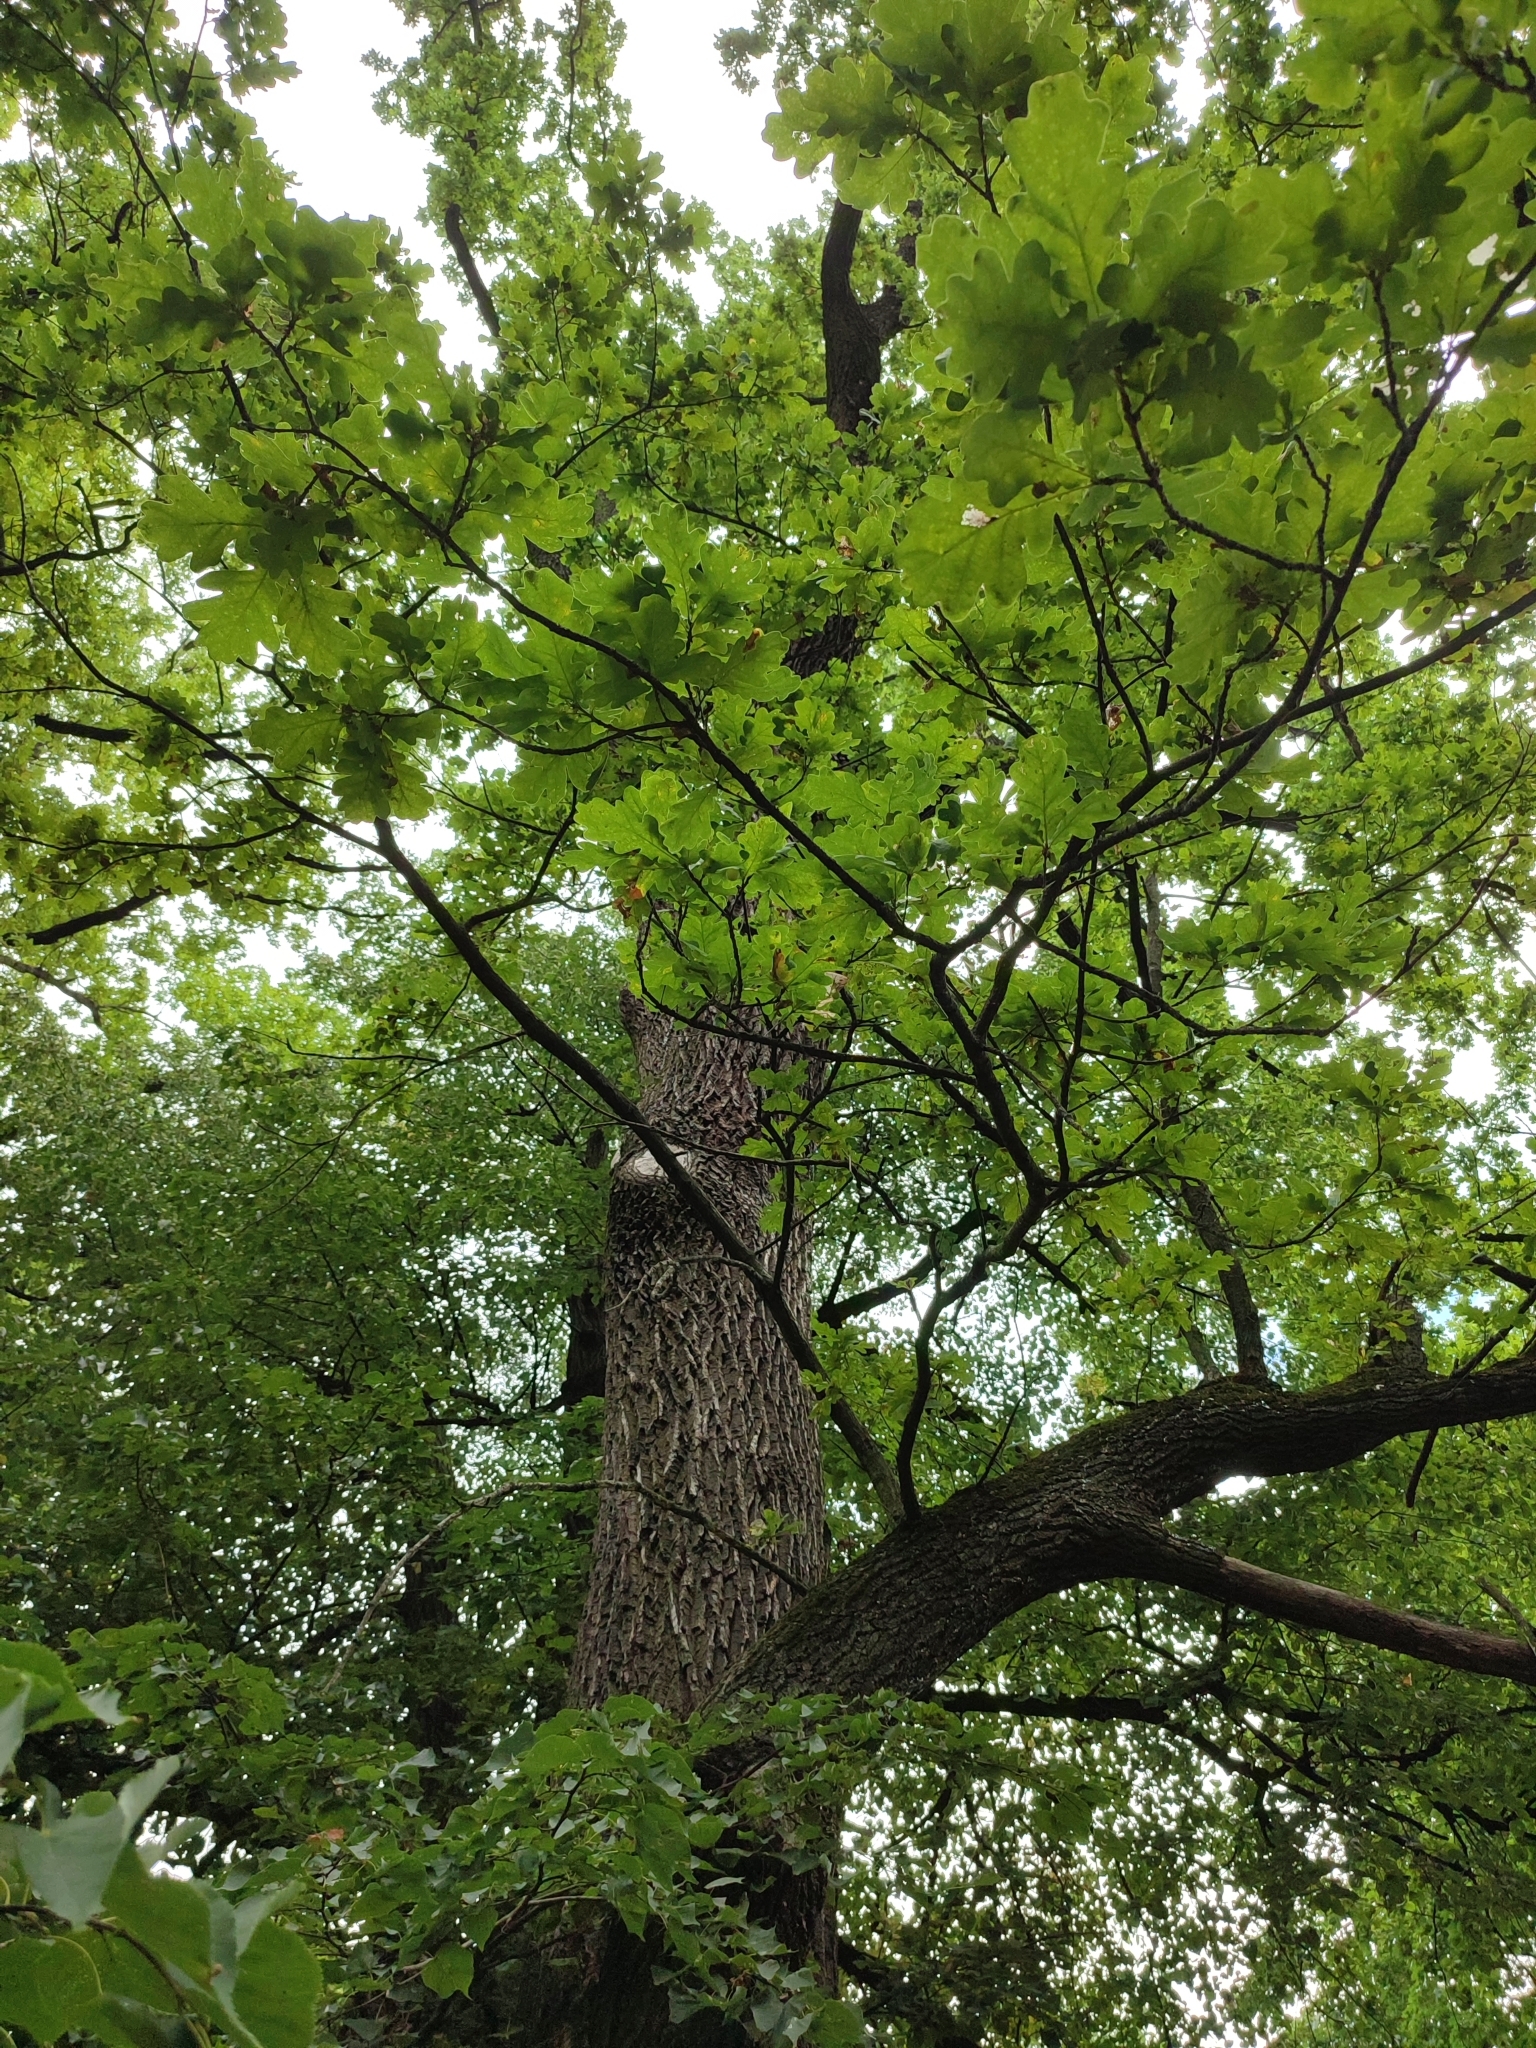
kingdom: Plantae
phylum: Tracheophyta
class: Magnoliopsida
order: Fagales
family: Fagaceae
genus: Quercus
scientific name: Quercus robur
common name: Pedunculate oak
